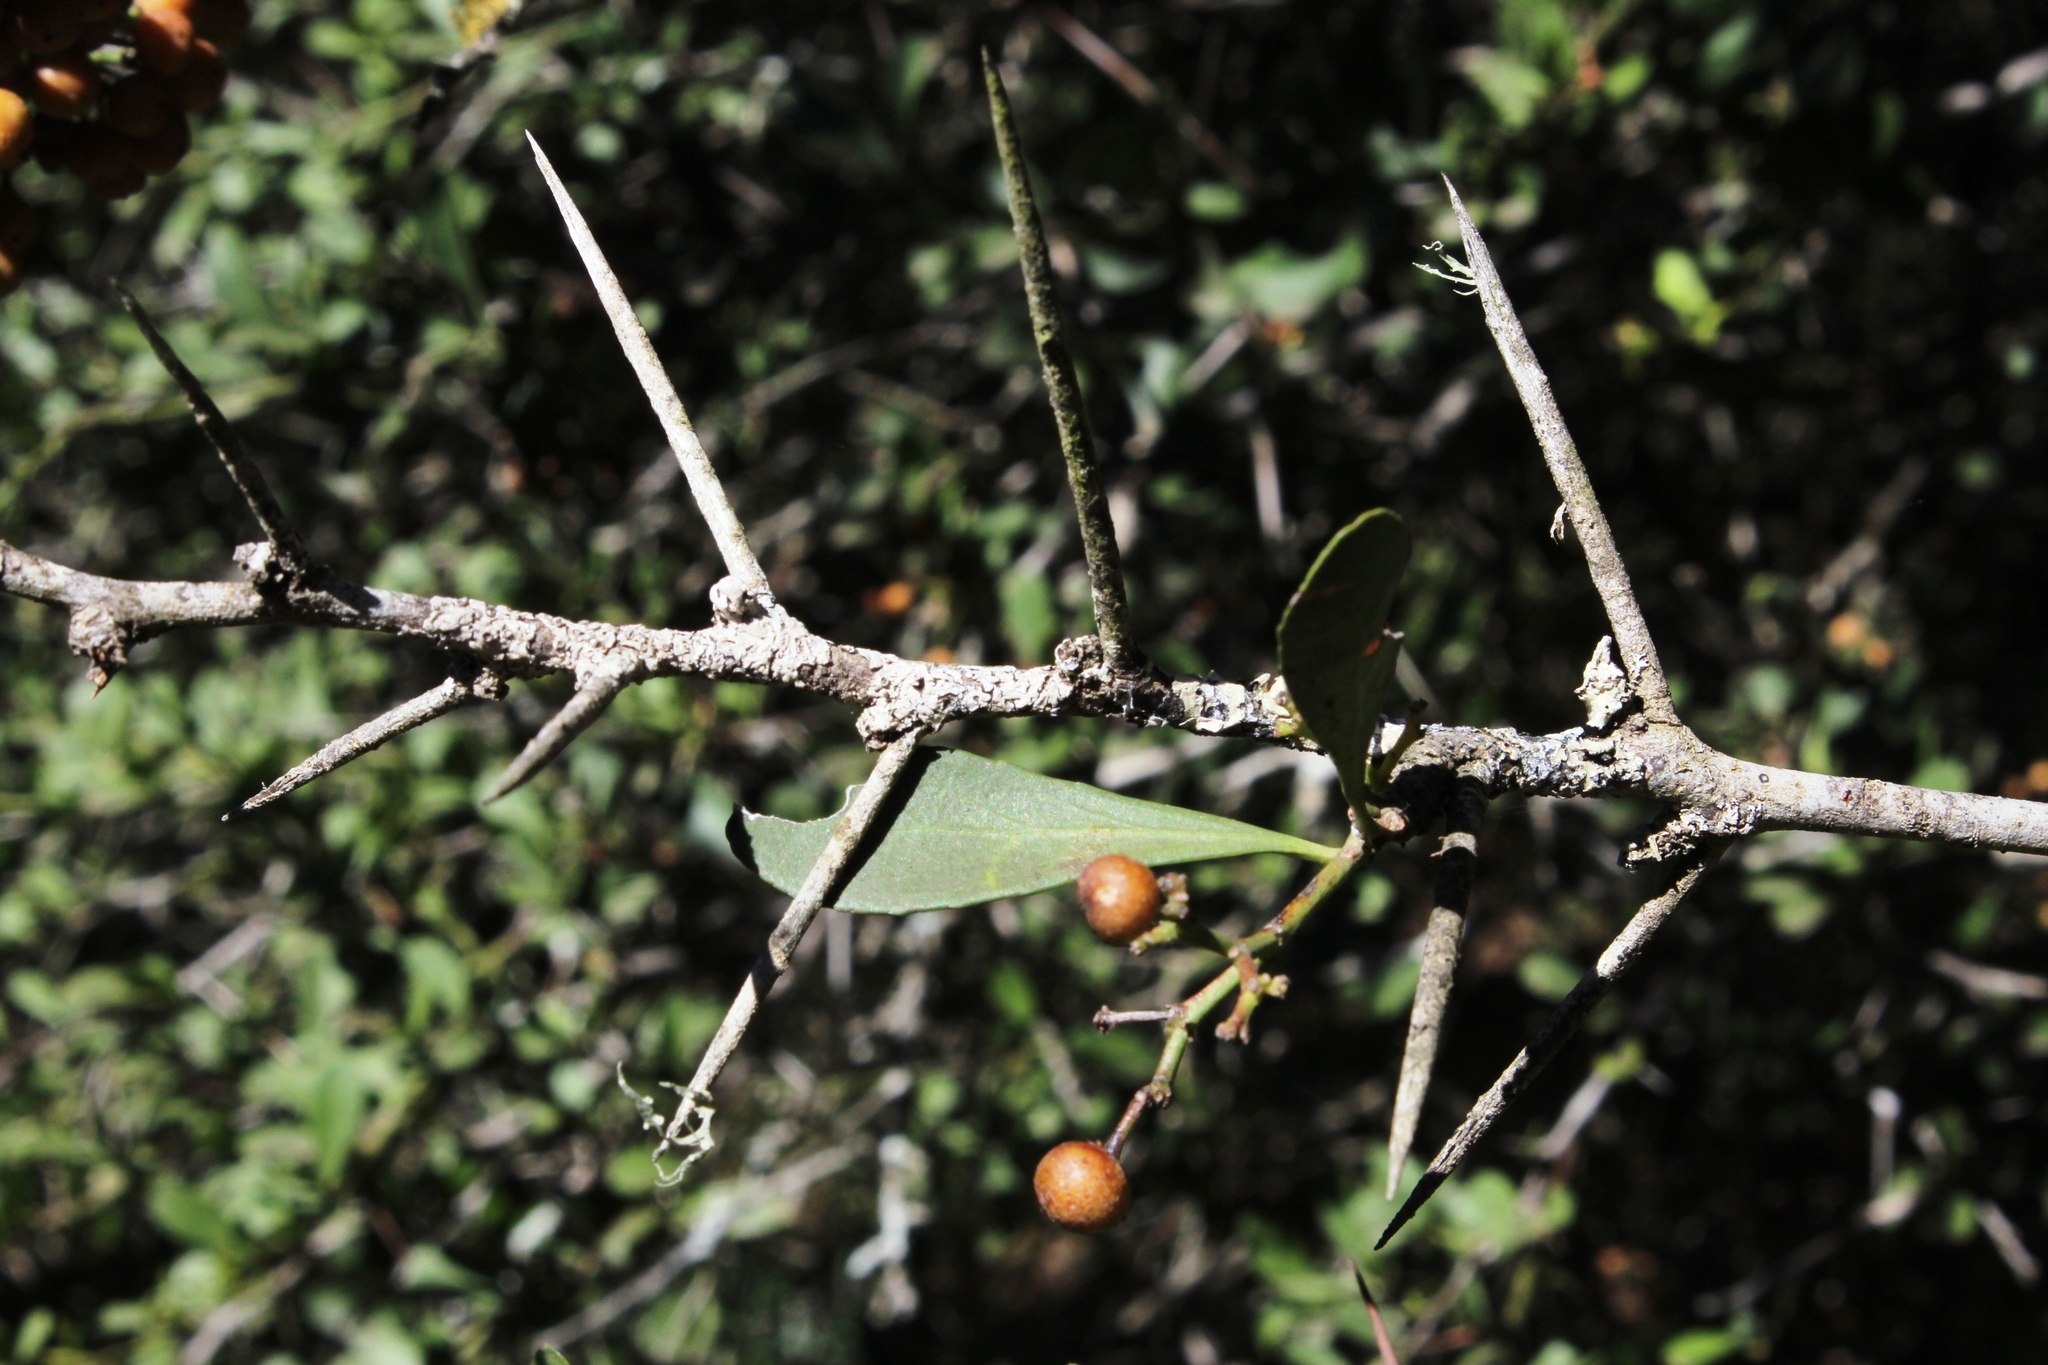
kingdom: Plantae
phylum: Tracheophyta
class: Magnoliopsida
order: Celastrales
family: Celastraceae
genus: Gymnosporia
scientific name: Gymnosporia buxifolia
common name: Common spike-thorn
